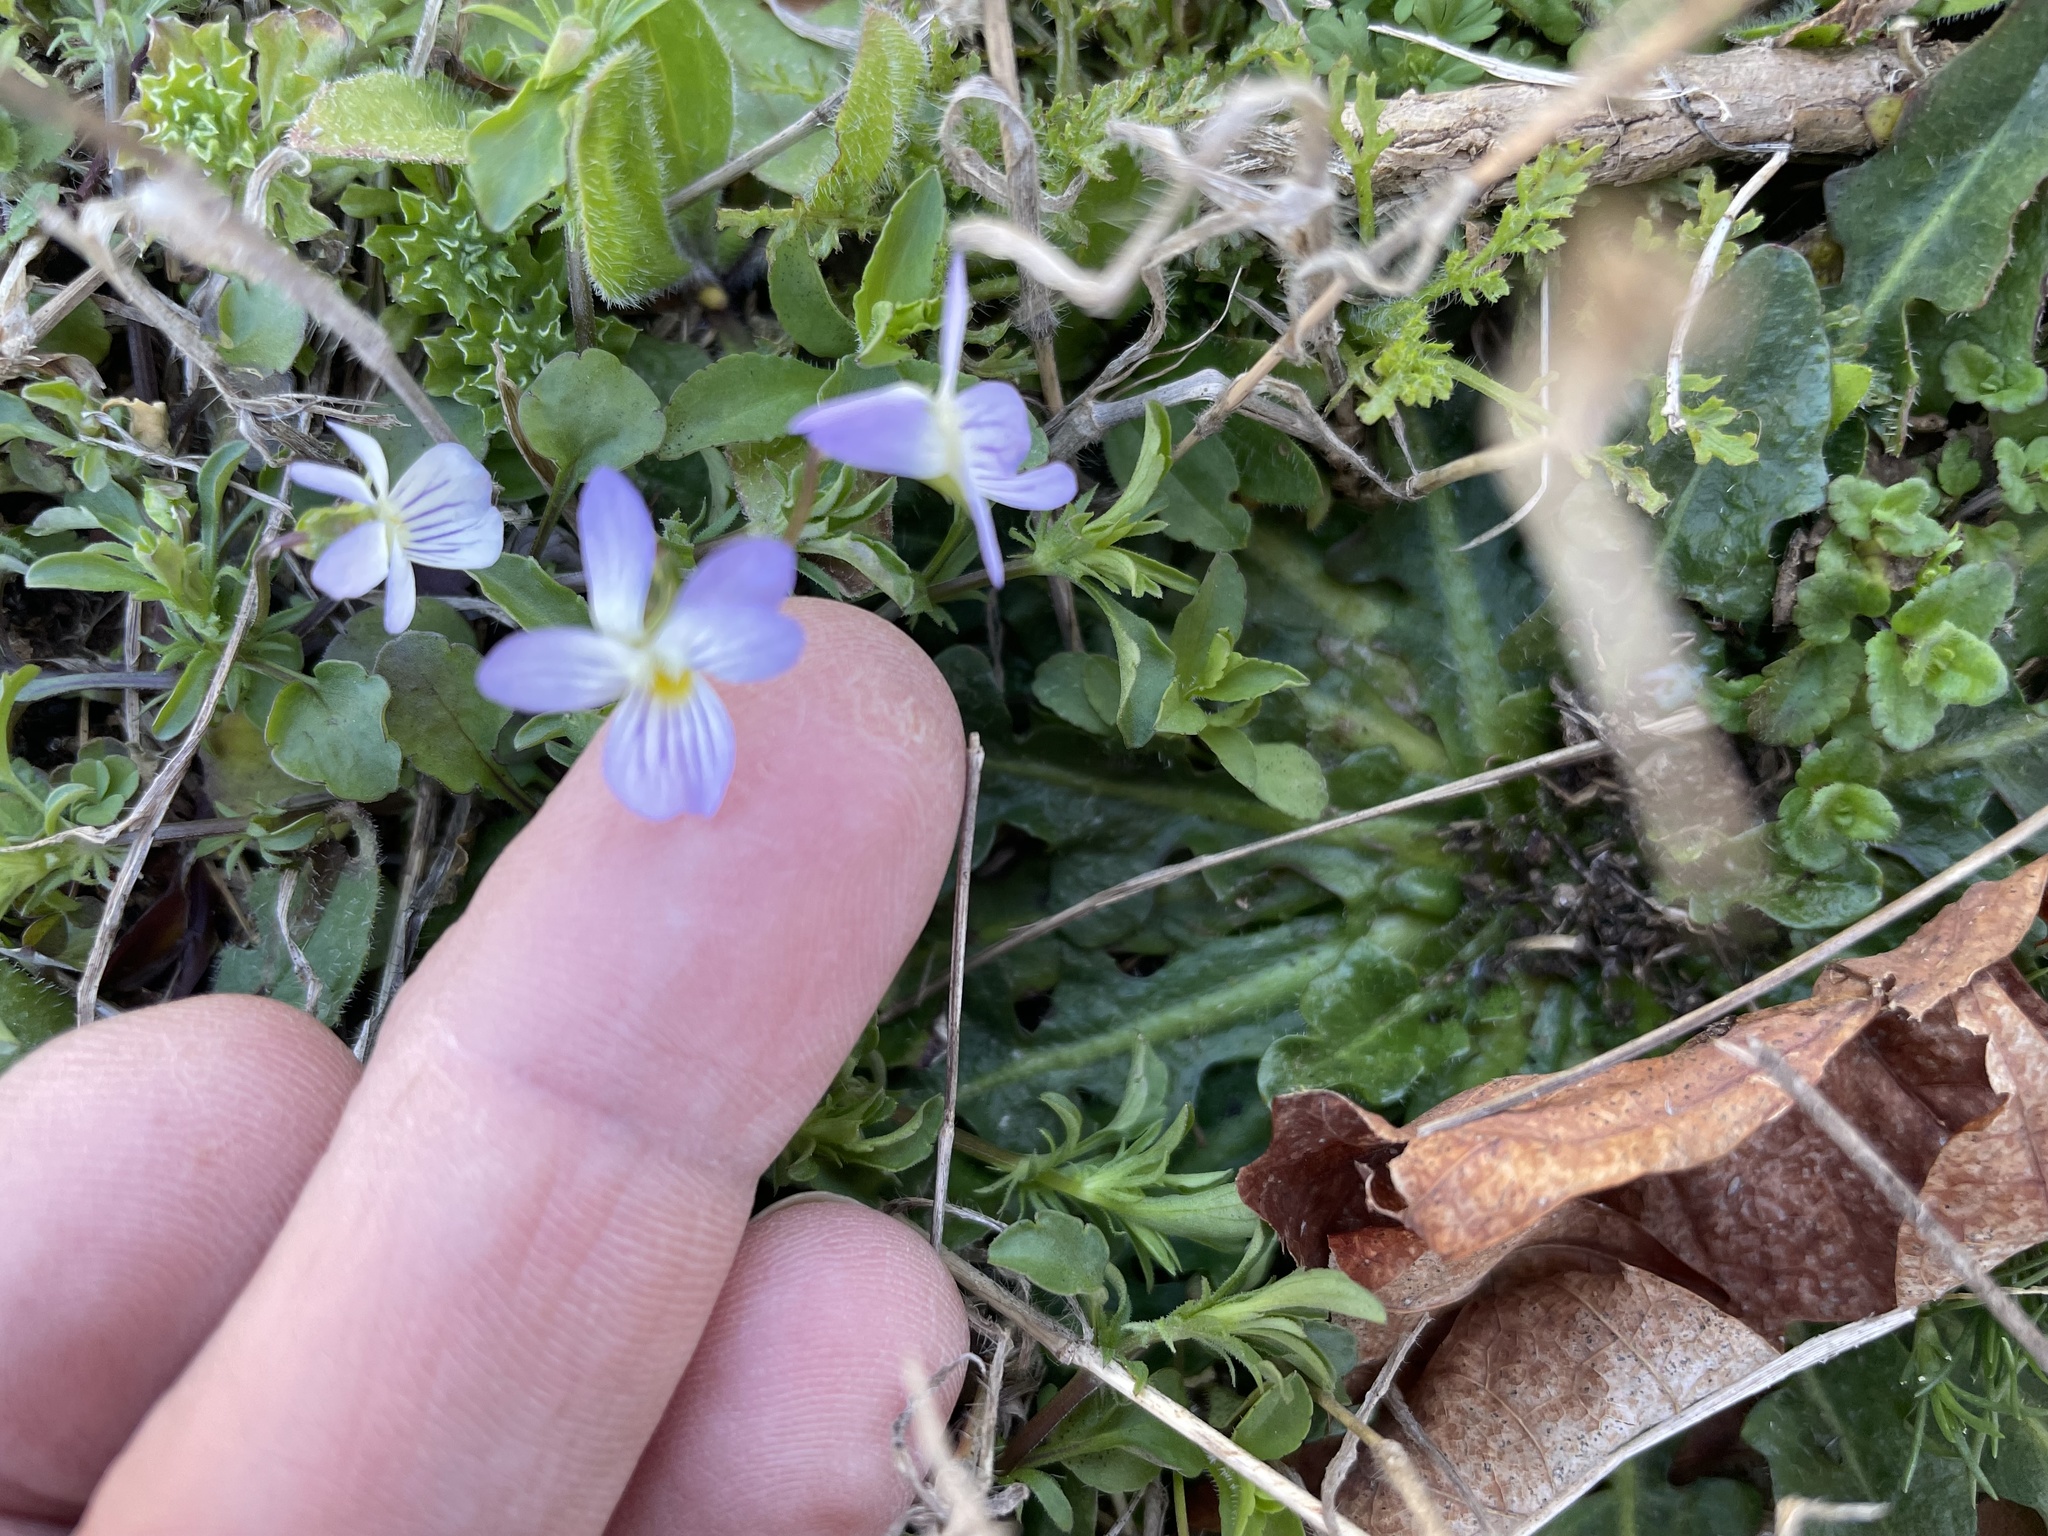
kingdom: Plantae
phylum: Tracheophyta
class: Magnoliopsida
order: Malpighiales
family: Violaceae
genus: Viola
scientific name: Viola rafinesquei
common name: American field pansy
